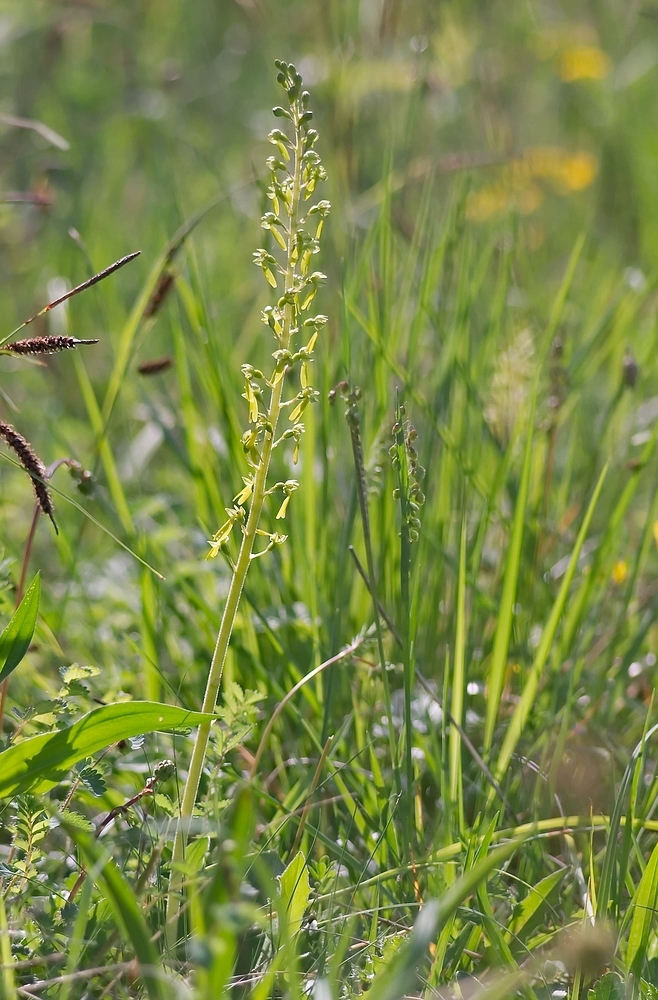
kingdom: Plantae
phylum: Tracheophyta
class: Liliopsida
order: Asparagales
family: Orchidaceae
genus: Neottia
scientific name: Neottia ovata
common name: Common twayblade
